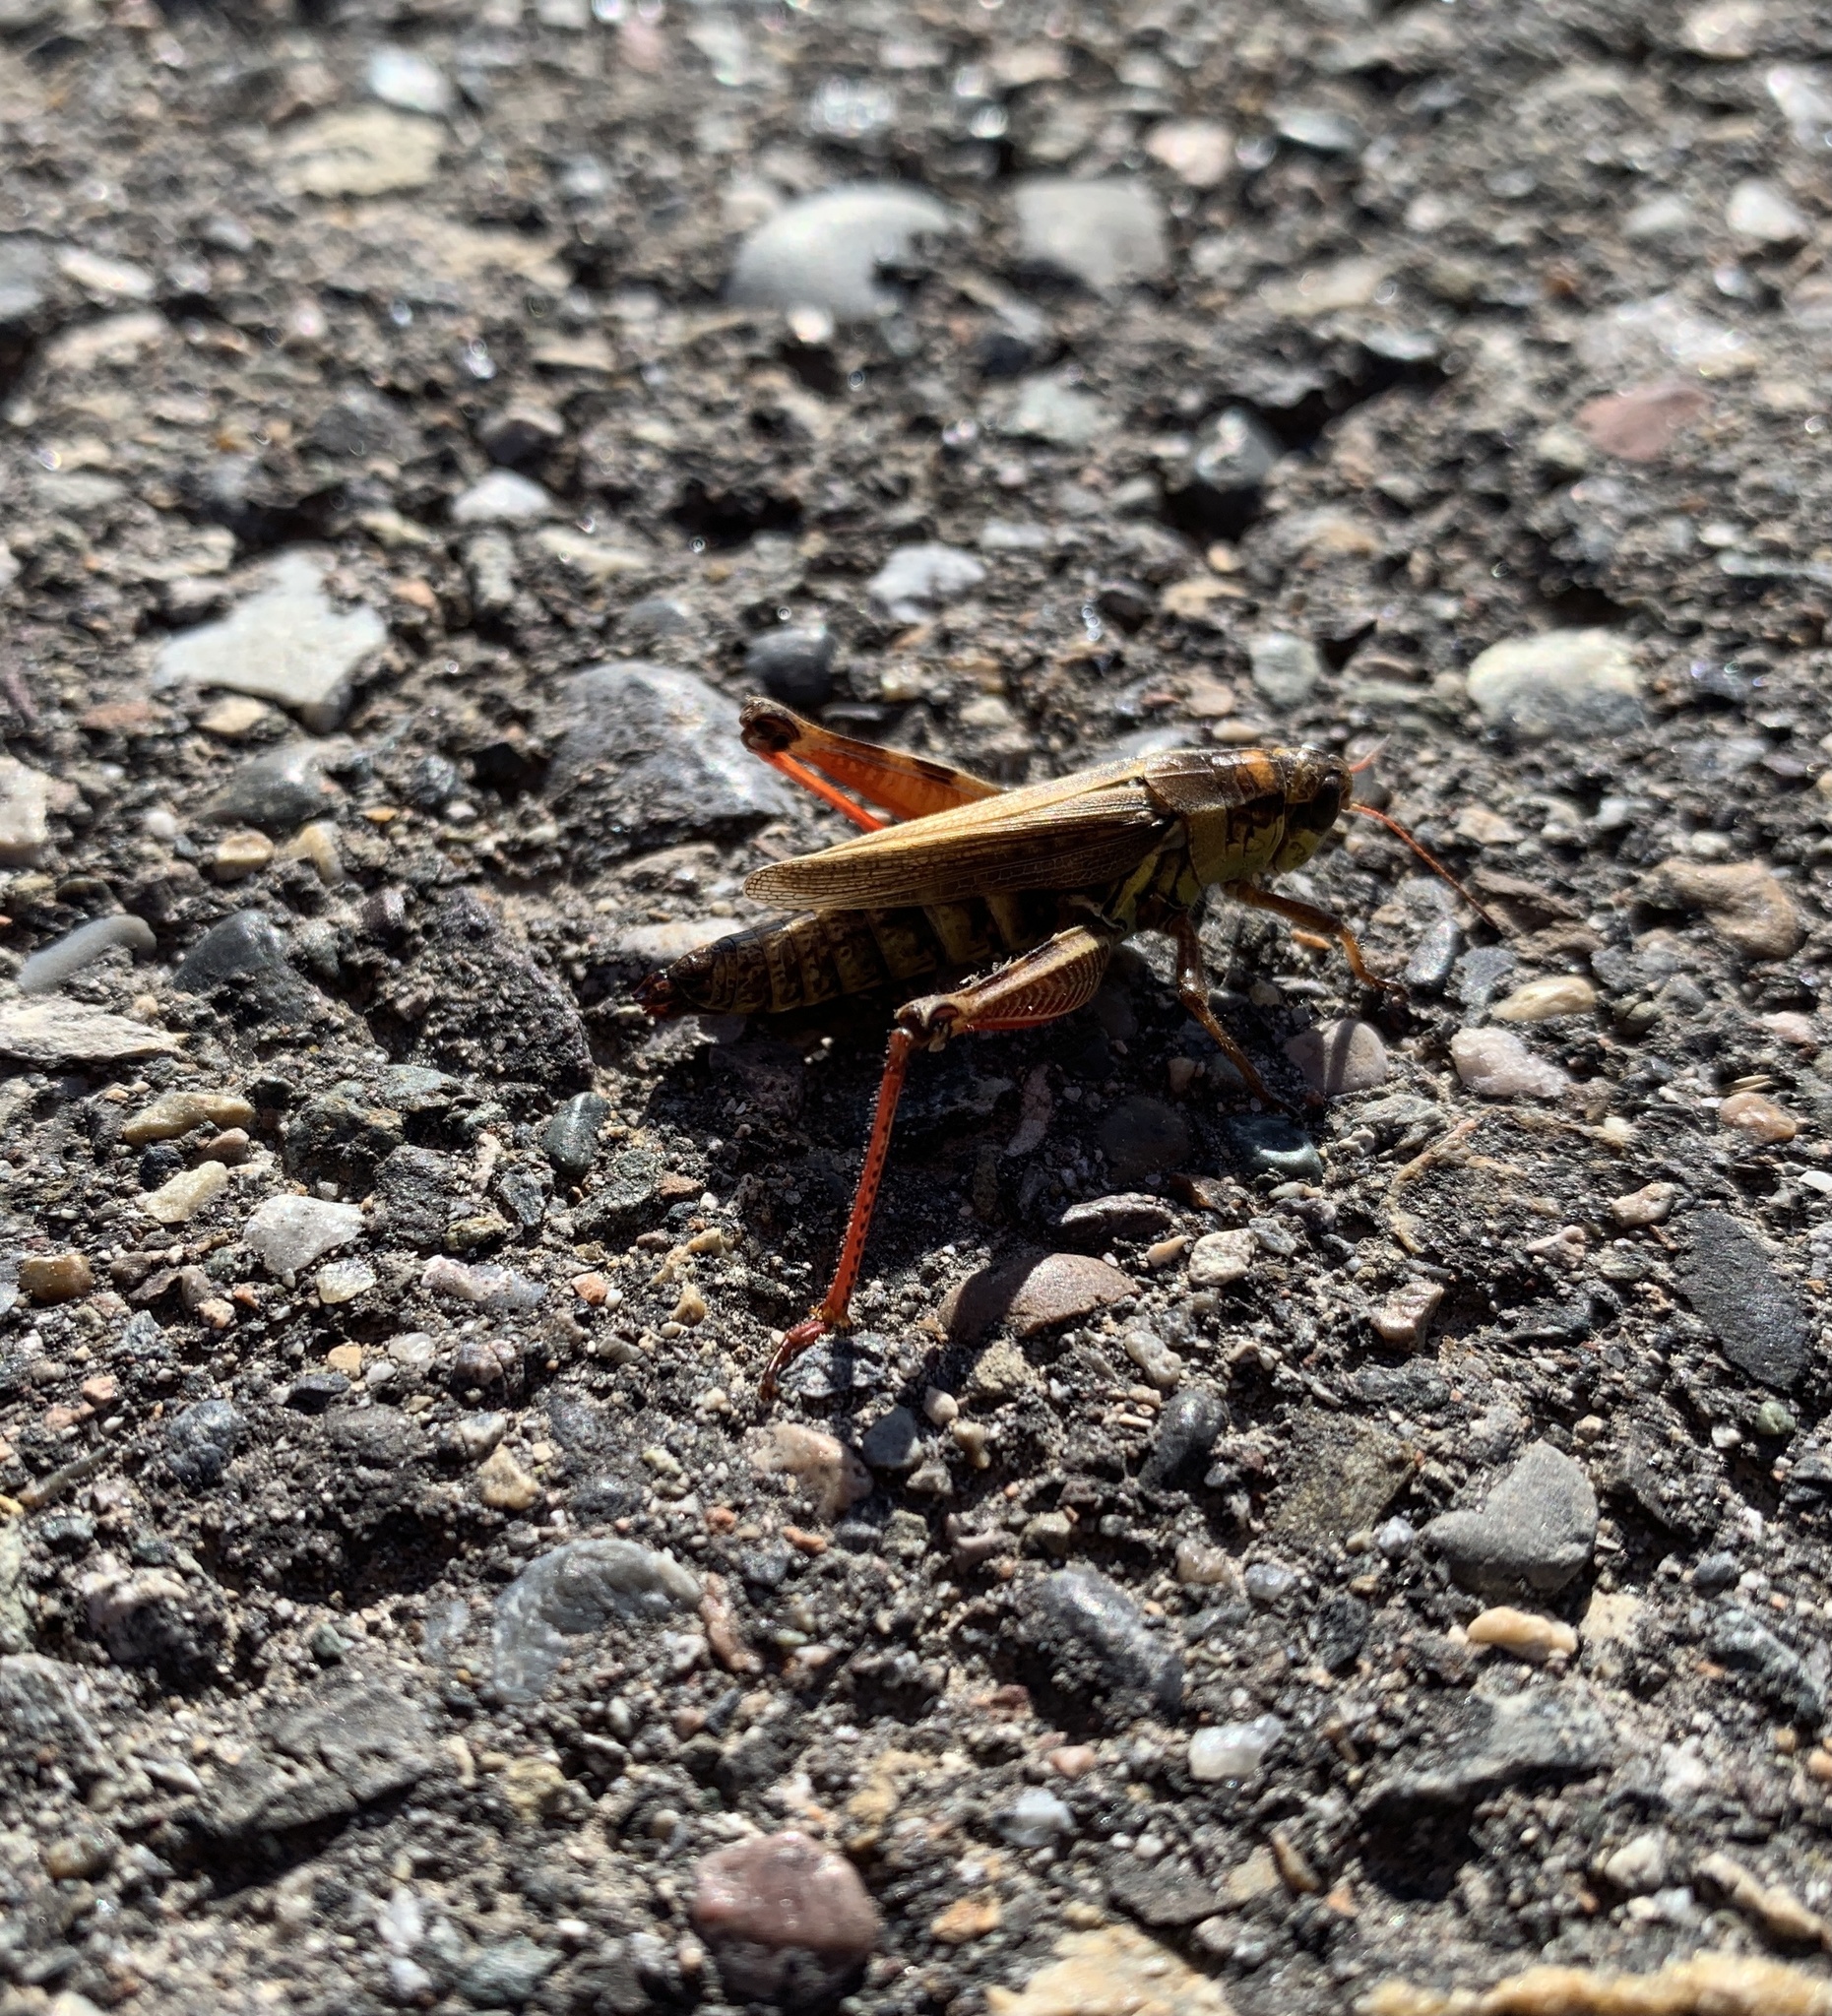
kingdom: Animalia
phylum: Arthropoda
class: Insecta
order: Orthoptera
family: Acrididae
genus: Melanoplus
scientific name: Melanoplus borealis
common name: Northern grasshopper
